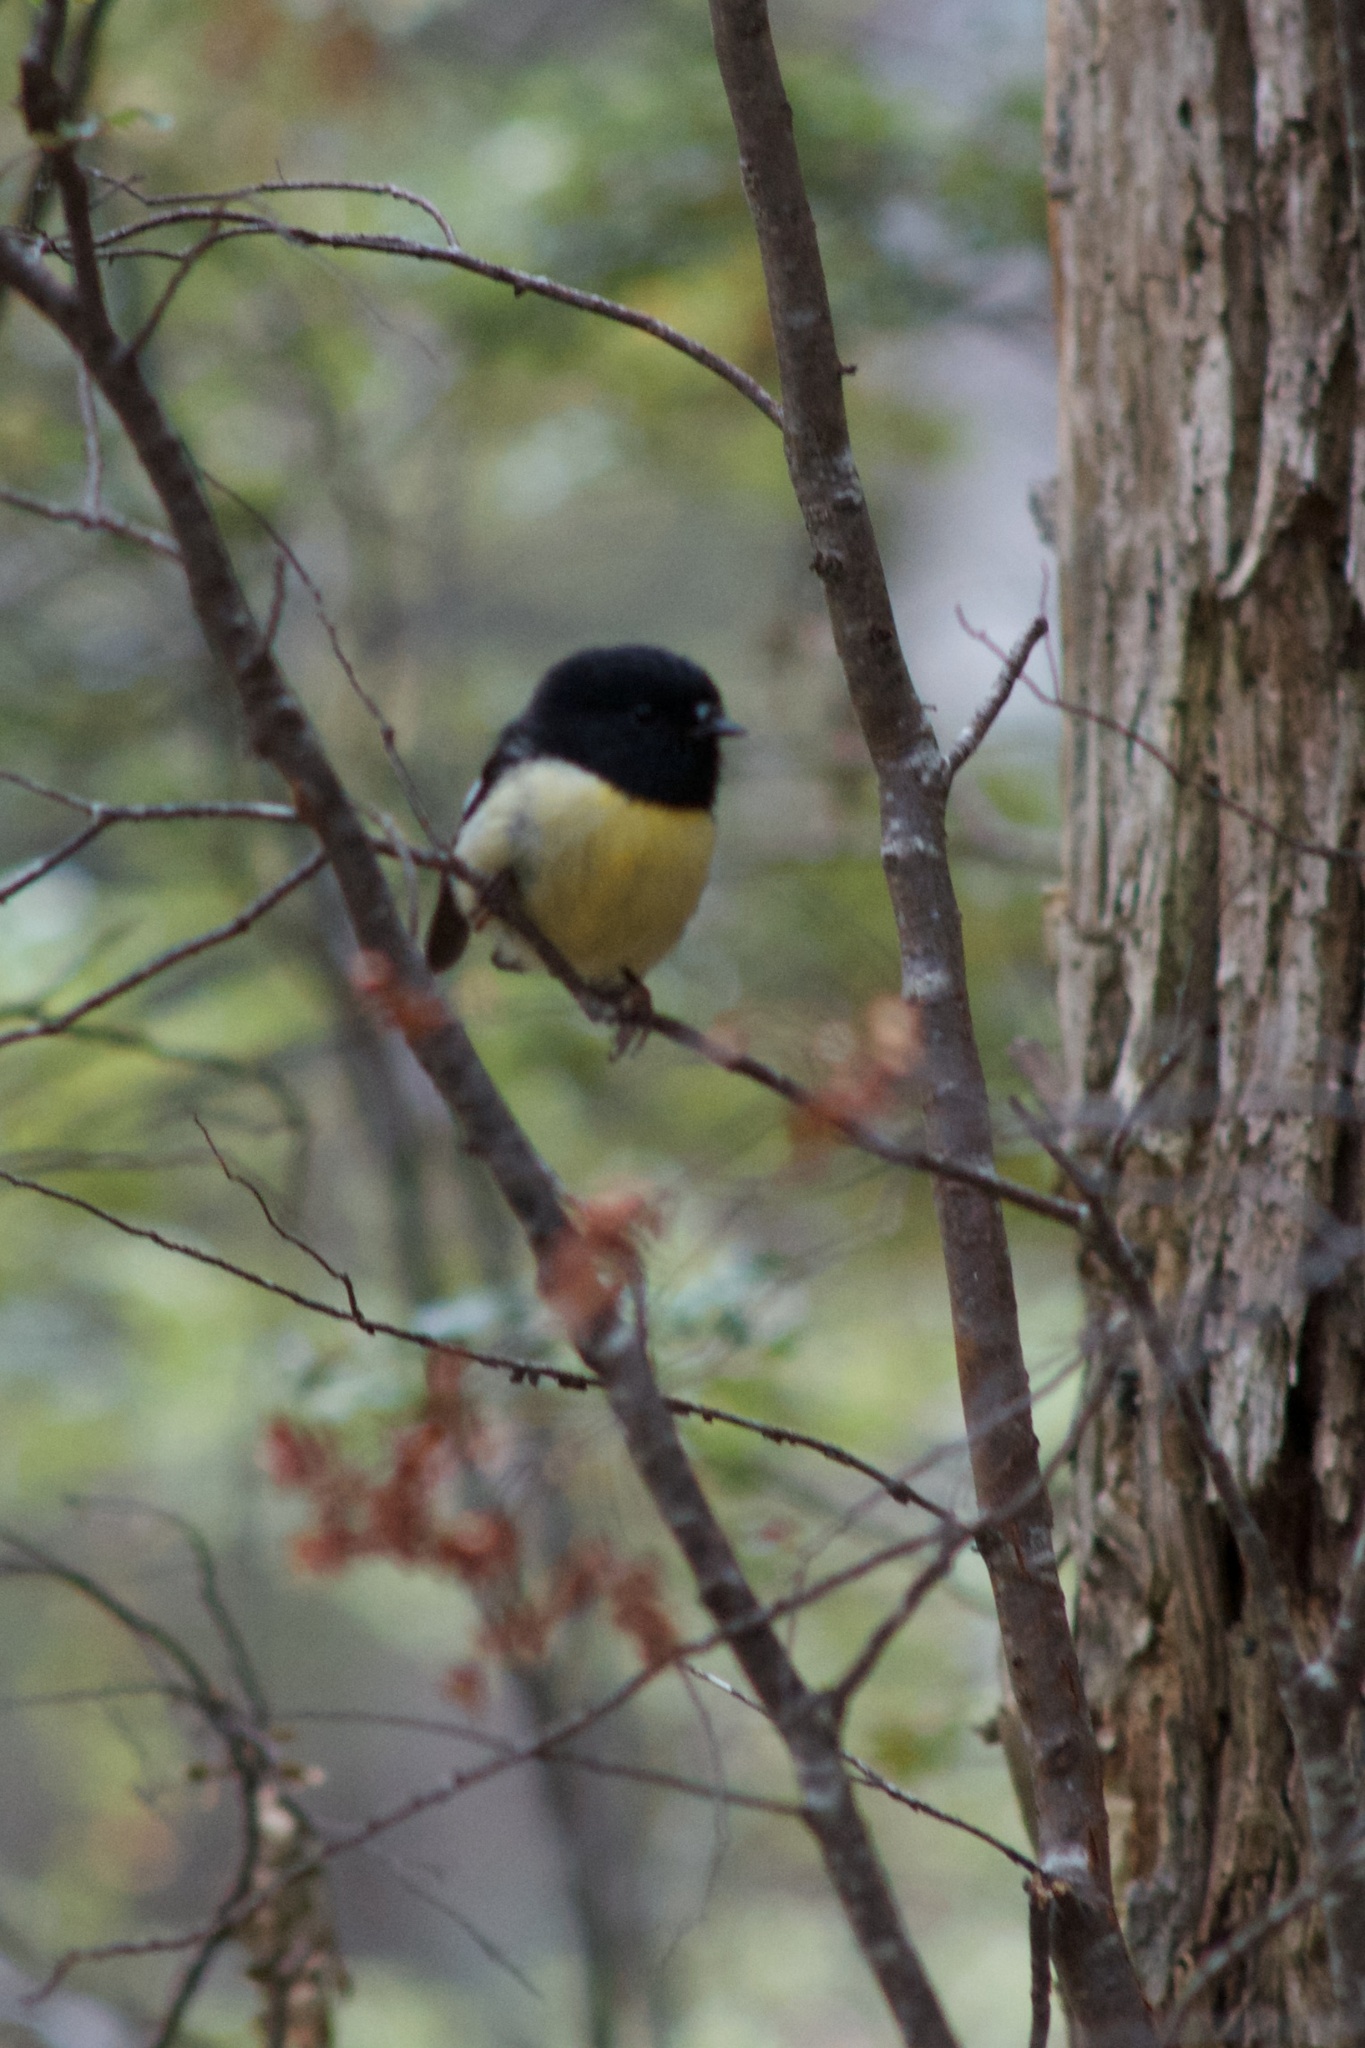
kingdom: Animalia
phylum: Chordata
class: Aves
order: Passeriformes
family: Petroicidae
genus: Petroica
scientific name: Petroica macrocephala
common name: Tomtit
